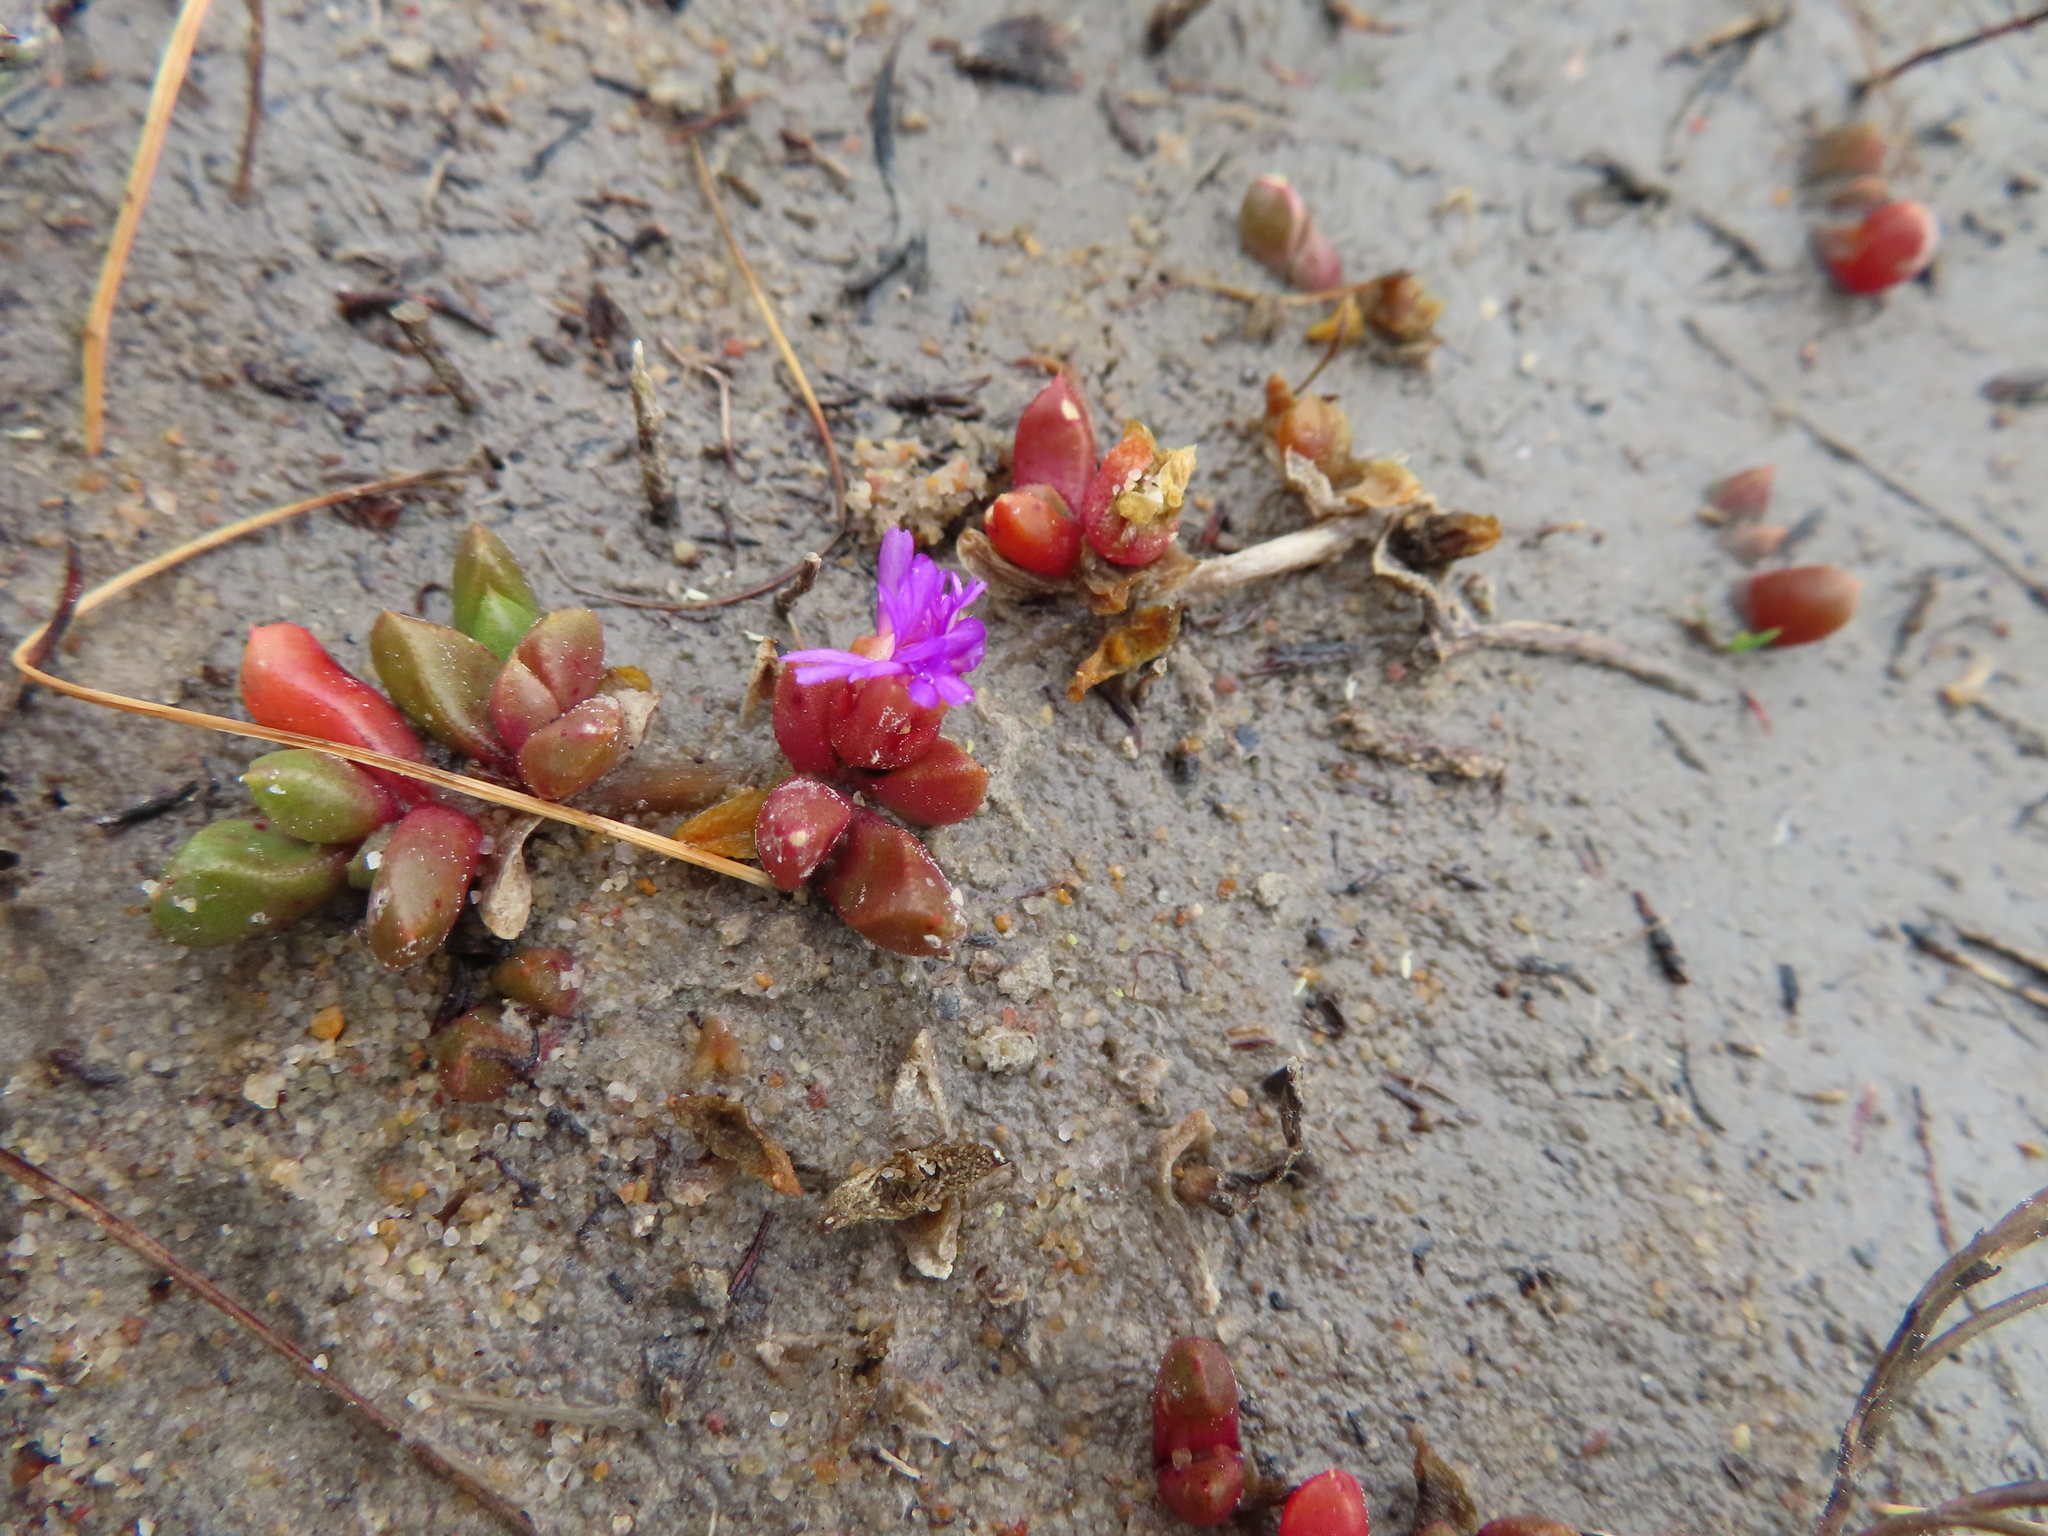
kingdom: Plantae
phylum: Tracheophyta
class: Magnoliopsida
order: Caryophyllales
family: Aizoaceae
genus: Disphyma
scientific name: Disphyma dunsdonii
